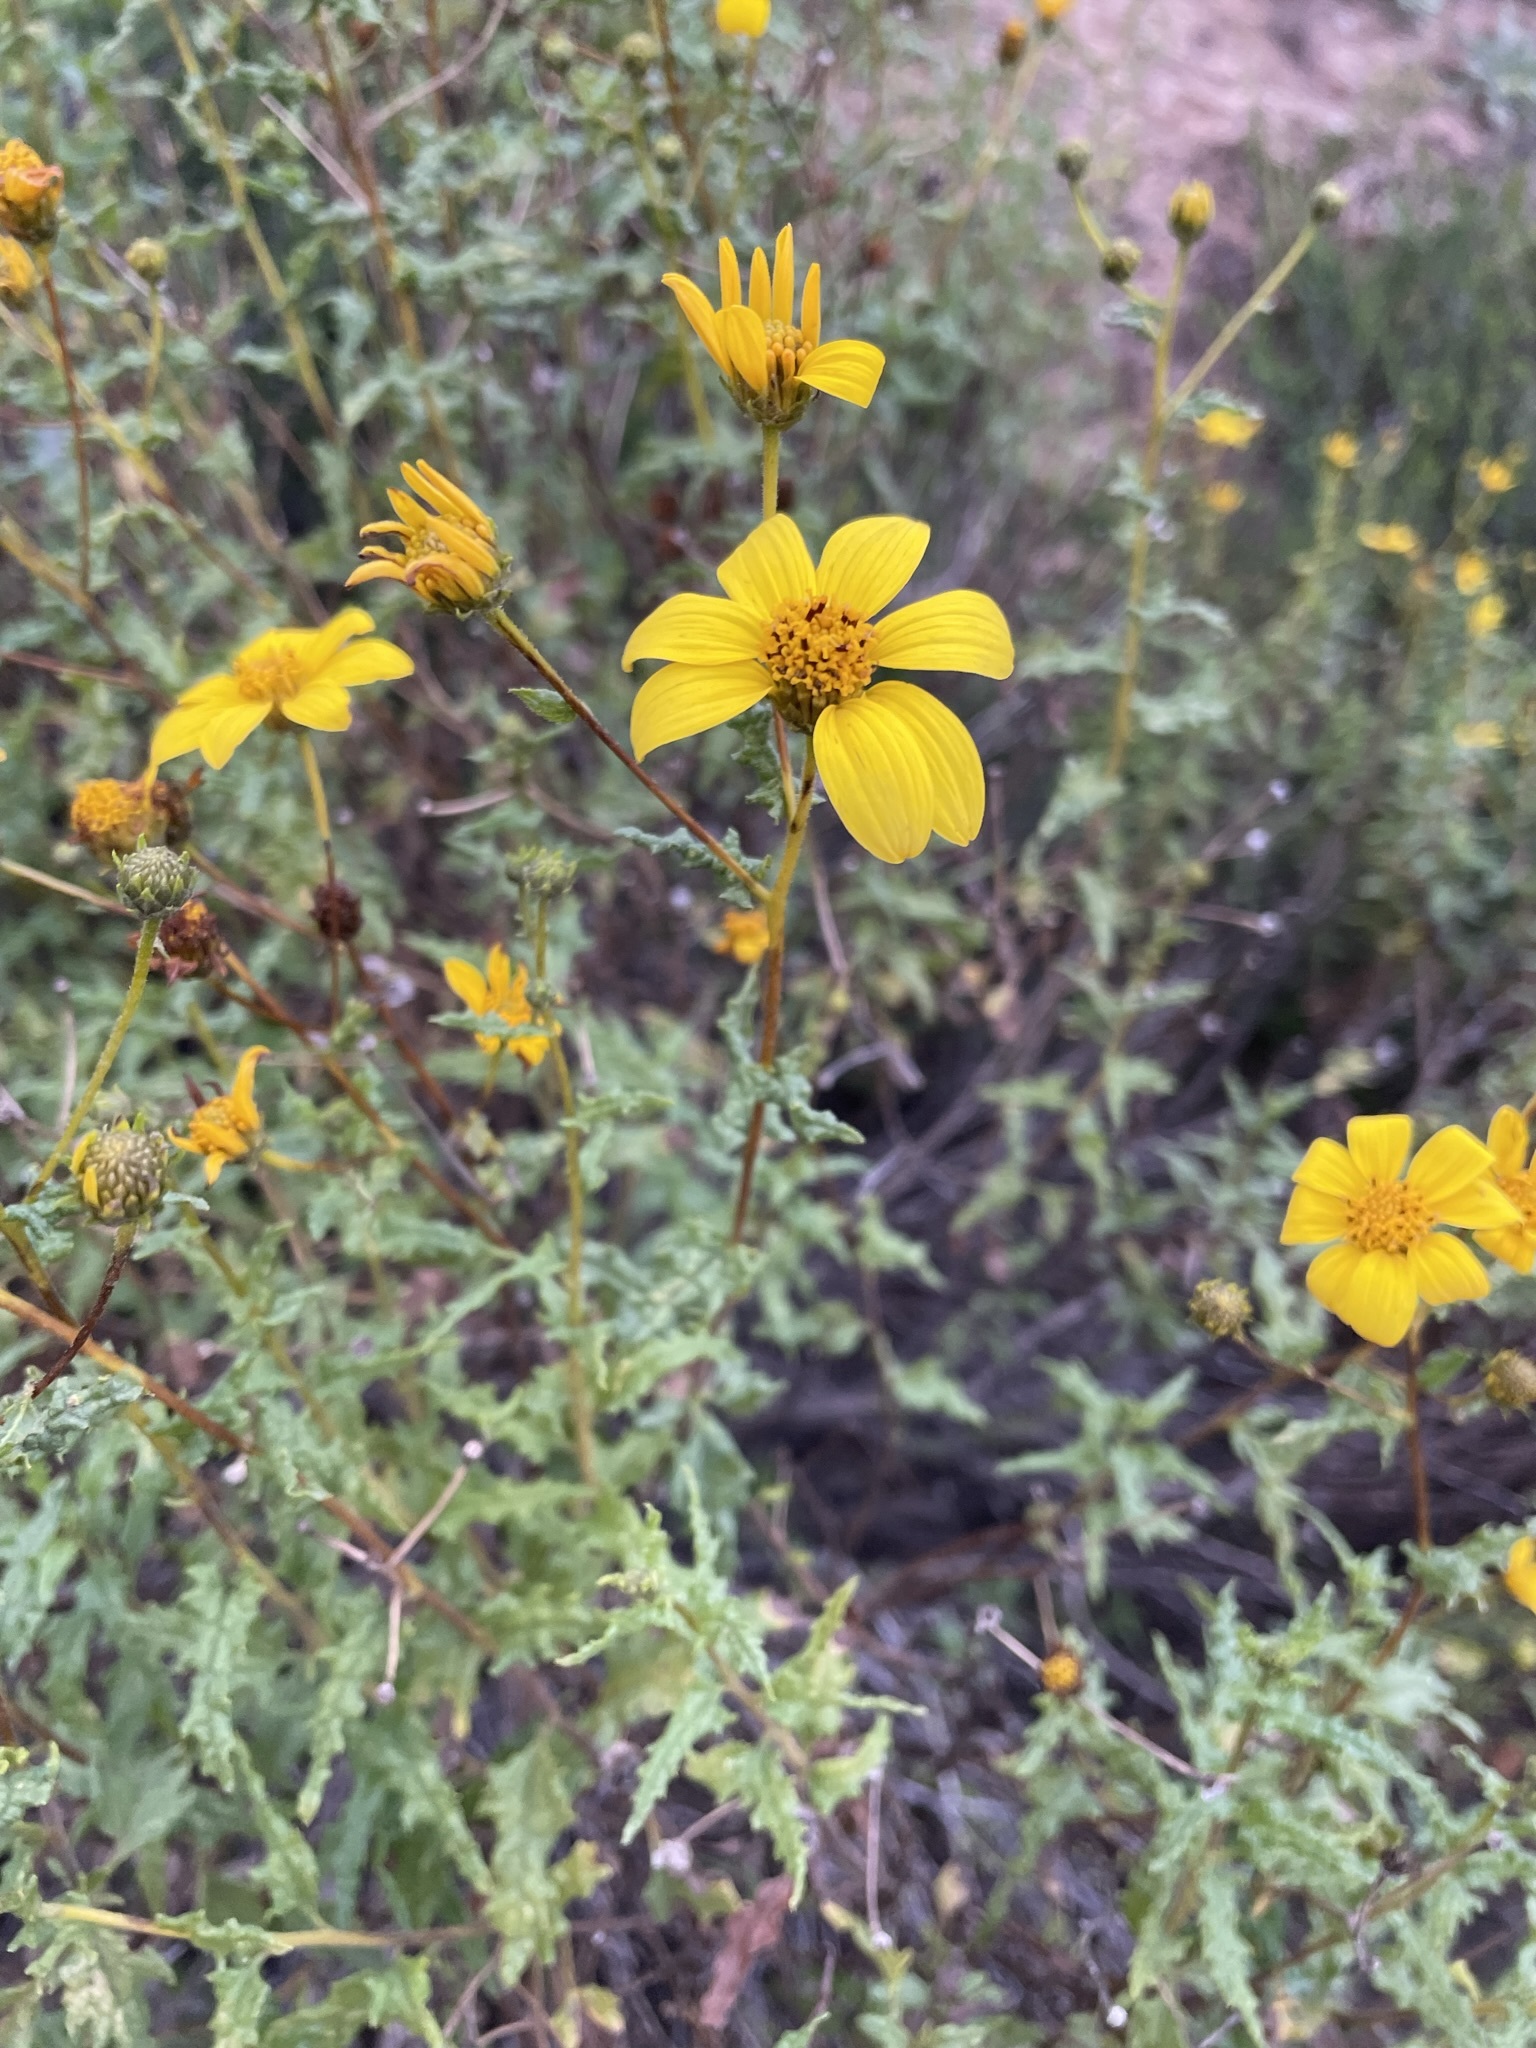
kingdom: Plantae
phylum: Tracheophyta
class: Magnoliopsida
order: Asterales
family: Asteraceae
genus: Bahiopsis
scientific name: Bahiopsis laciniata
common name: San diego county viguiera
